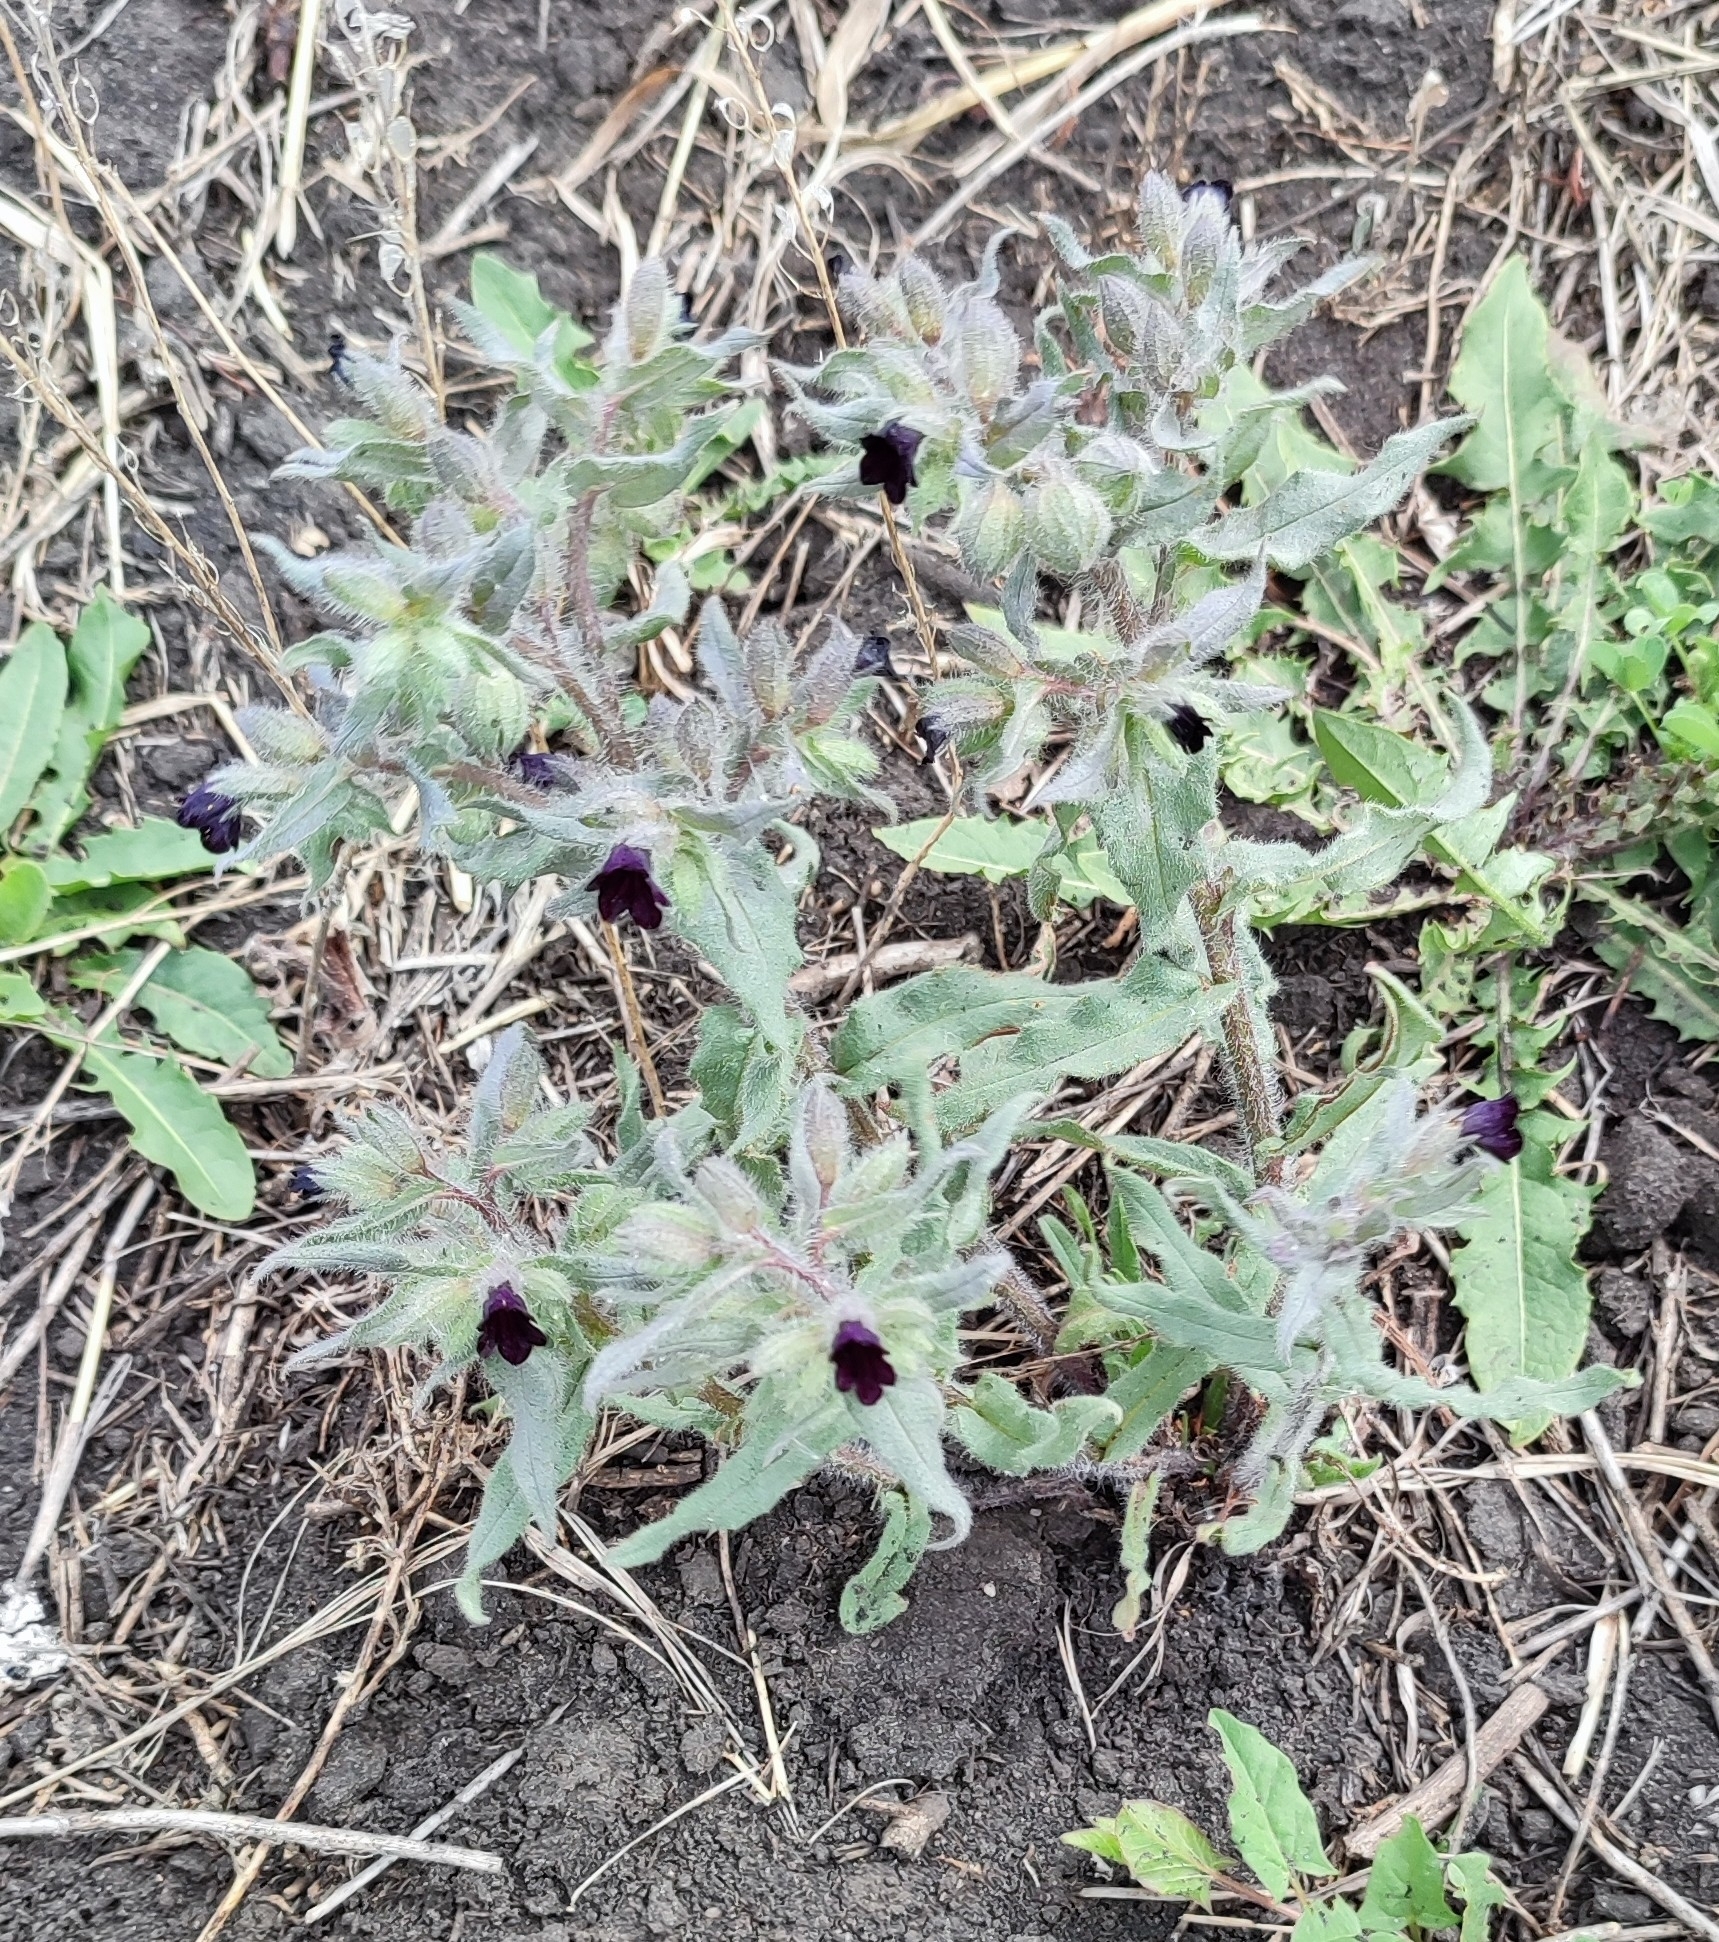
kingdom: Plantae
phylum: Tracheophyta
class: Magnoliopsida
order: Boraginales
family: Boraginaceae
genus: Nonea
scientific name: Nonea pulla
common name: Brown nonea
